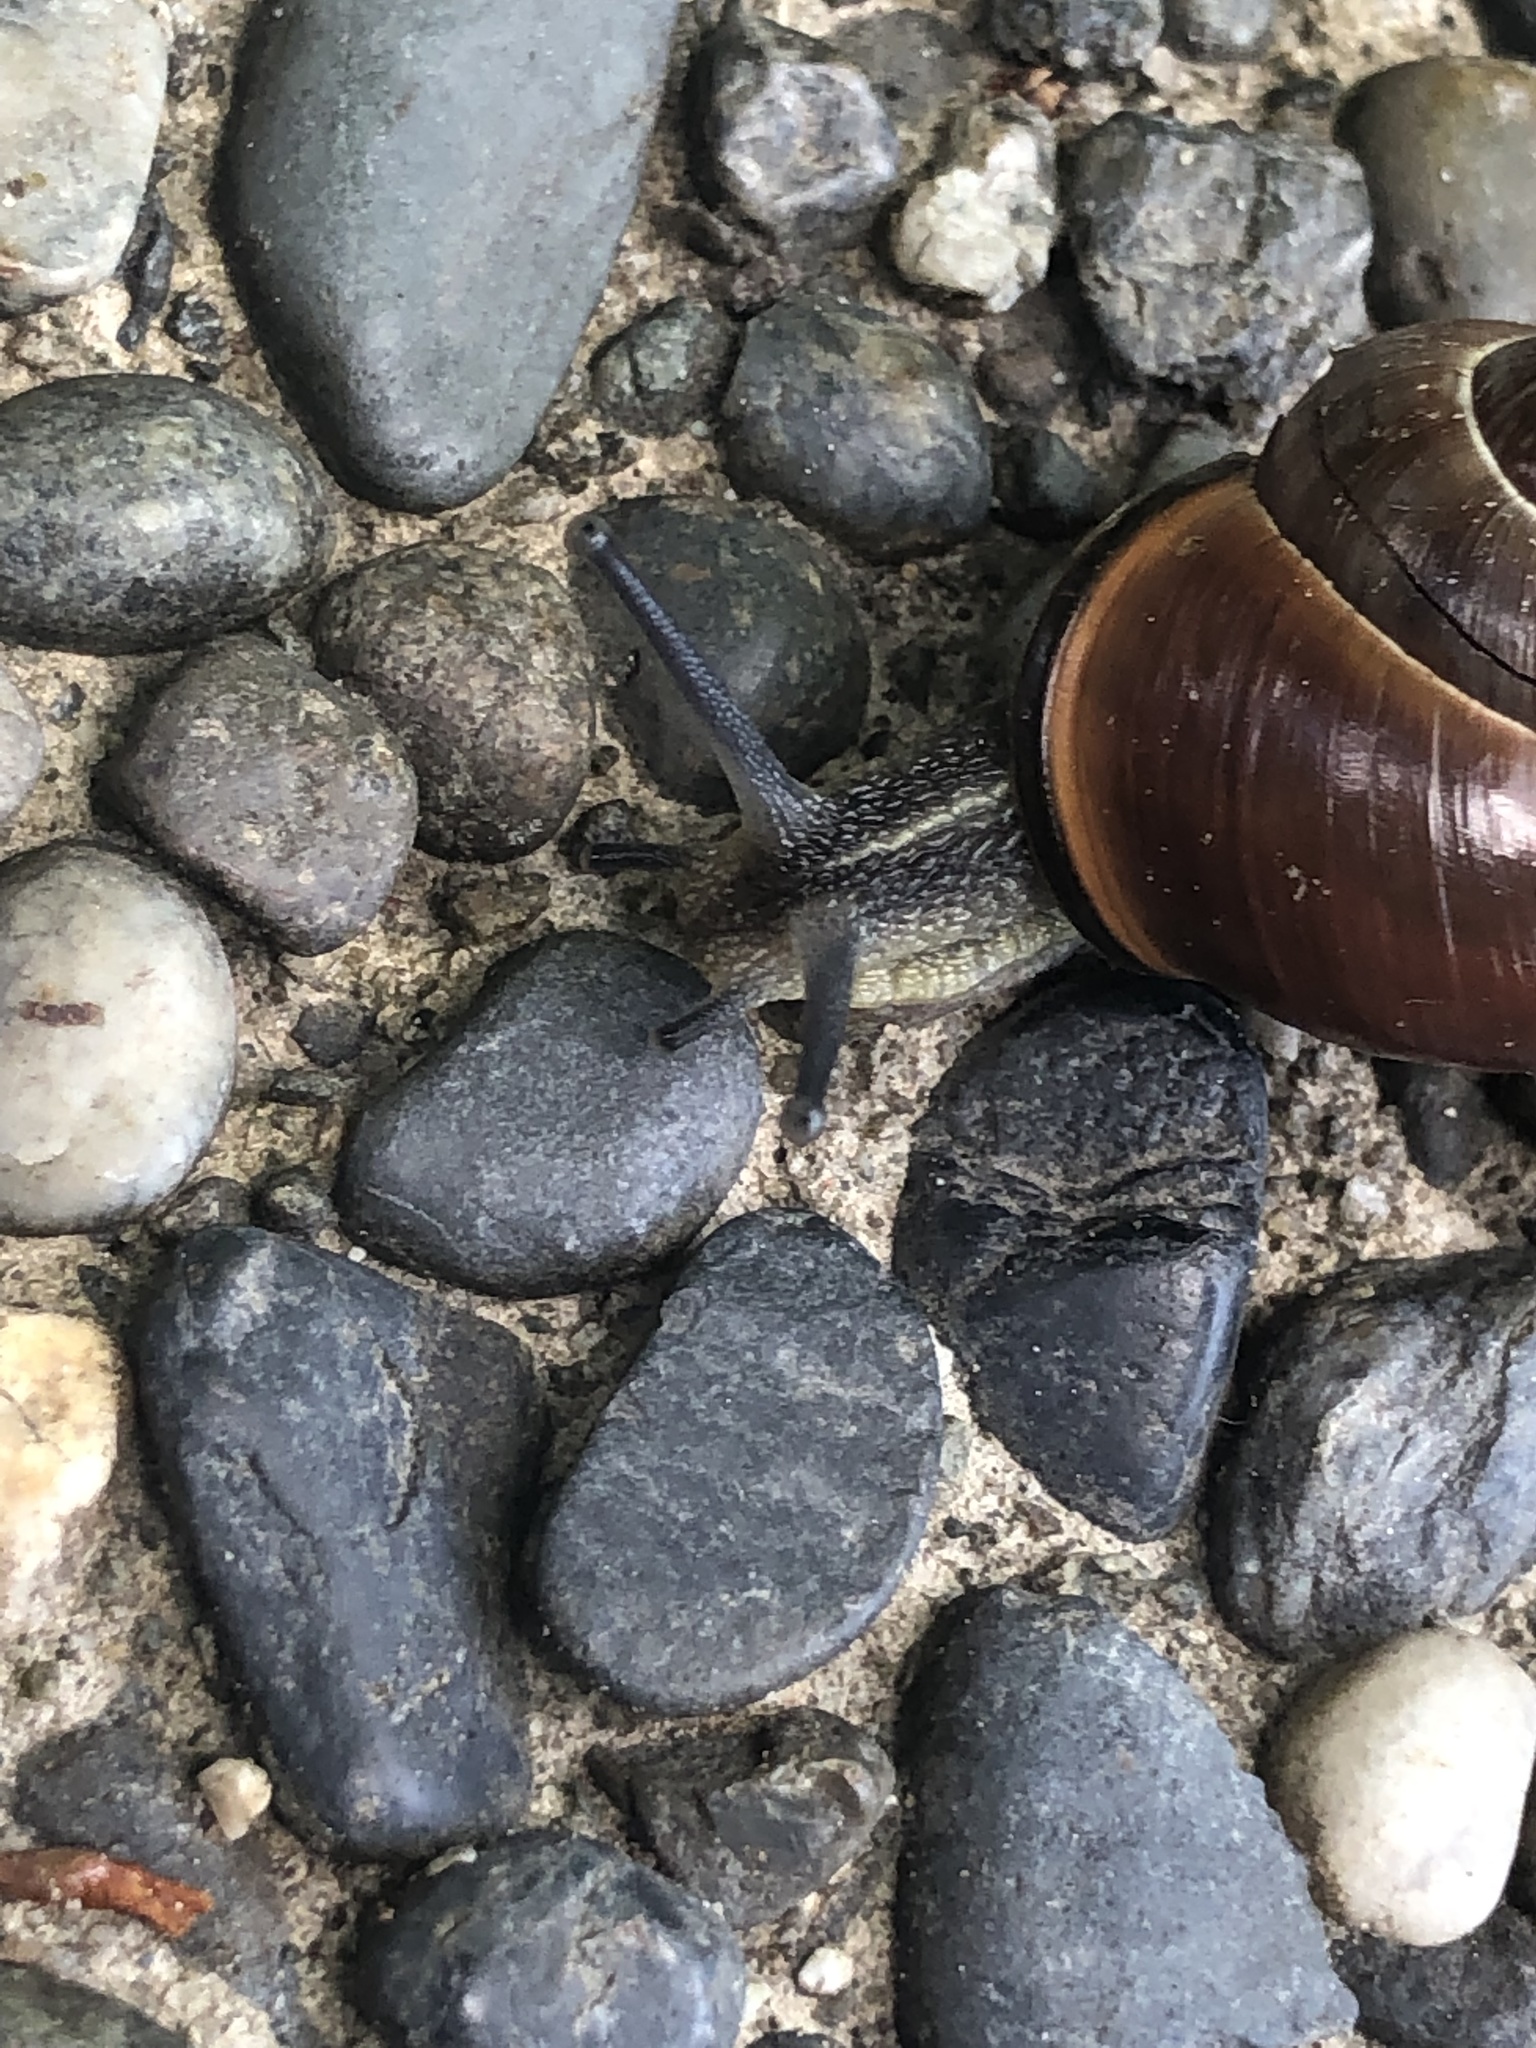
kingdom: Animalia
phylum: Mollusca
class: Gastropoda
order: Stylommatophora
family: Helicidae
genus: Cepaea
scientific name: Cepaea nemoralis
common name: Grovesnail
